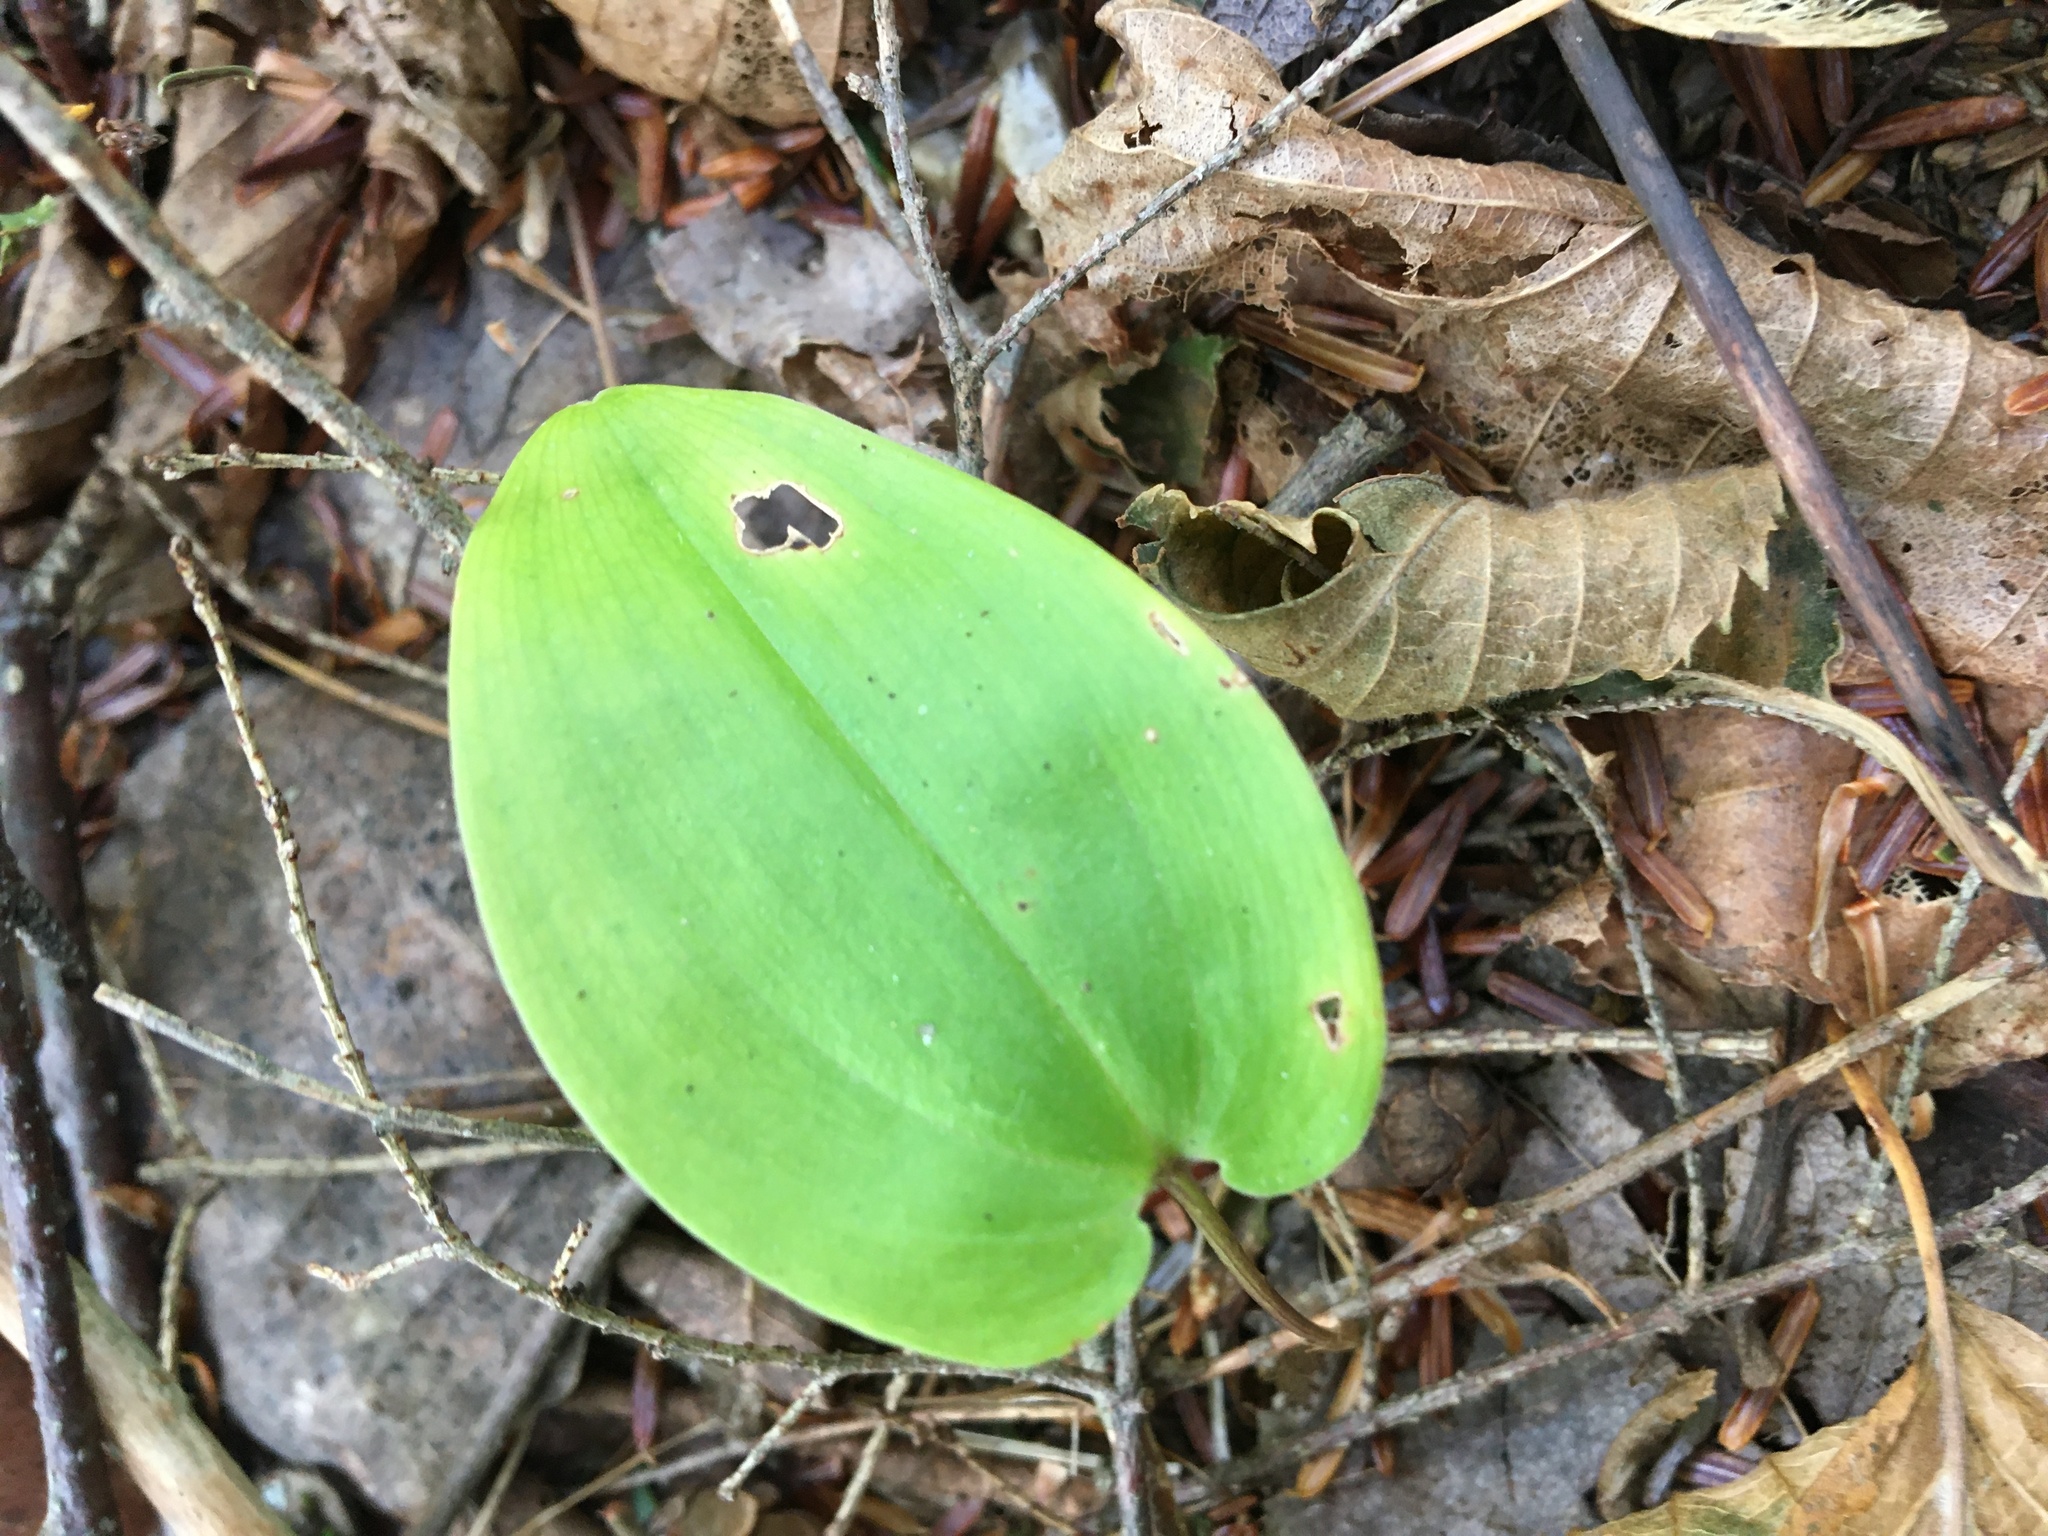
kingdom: Plantae
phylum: Tracheophyta
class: Liliopsida
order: Asparagales
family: Asparagaceae
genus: Maianthemum
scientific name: Maianthemum canadense
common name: False lily-of-the-valley
